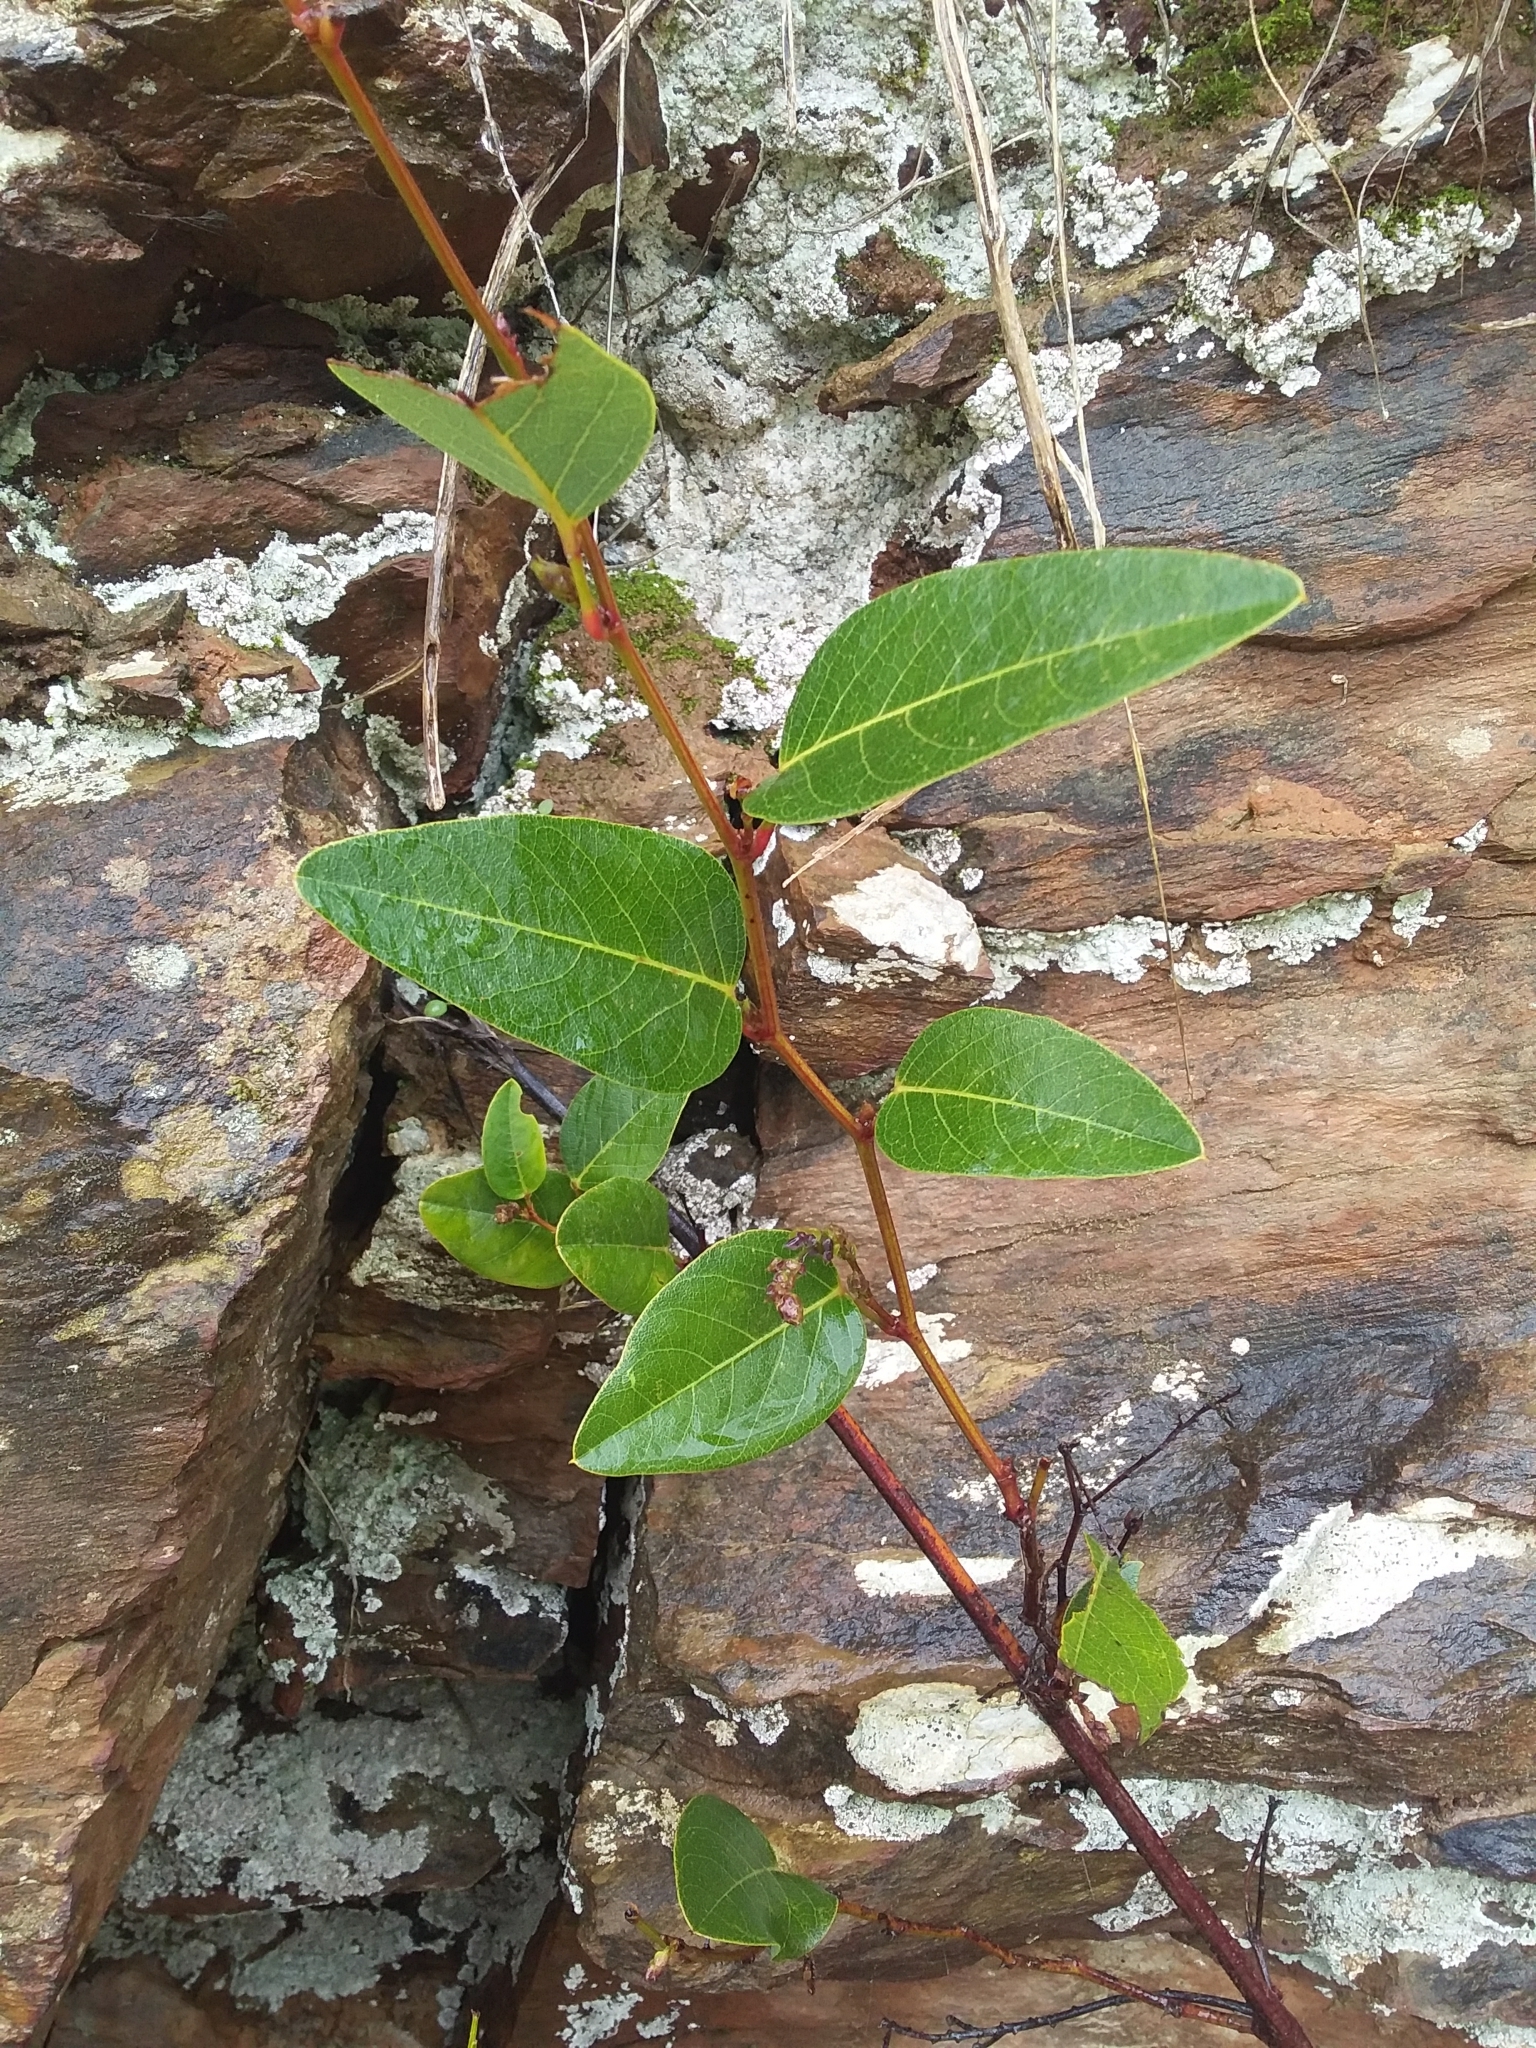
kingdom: Plantae
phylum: Tracheophyta
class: Magnoliopsida
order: Fabales
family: Fabaceae
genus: Hardenbergia
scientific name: Hardenbergia violacea
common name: Coral-pea
